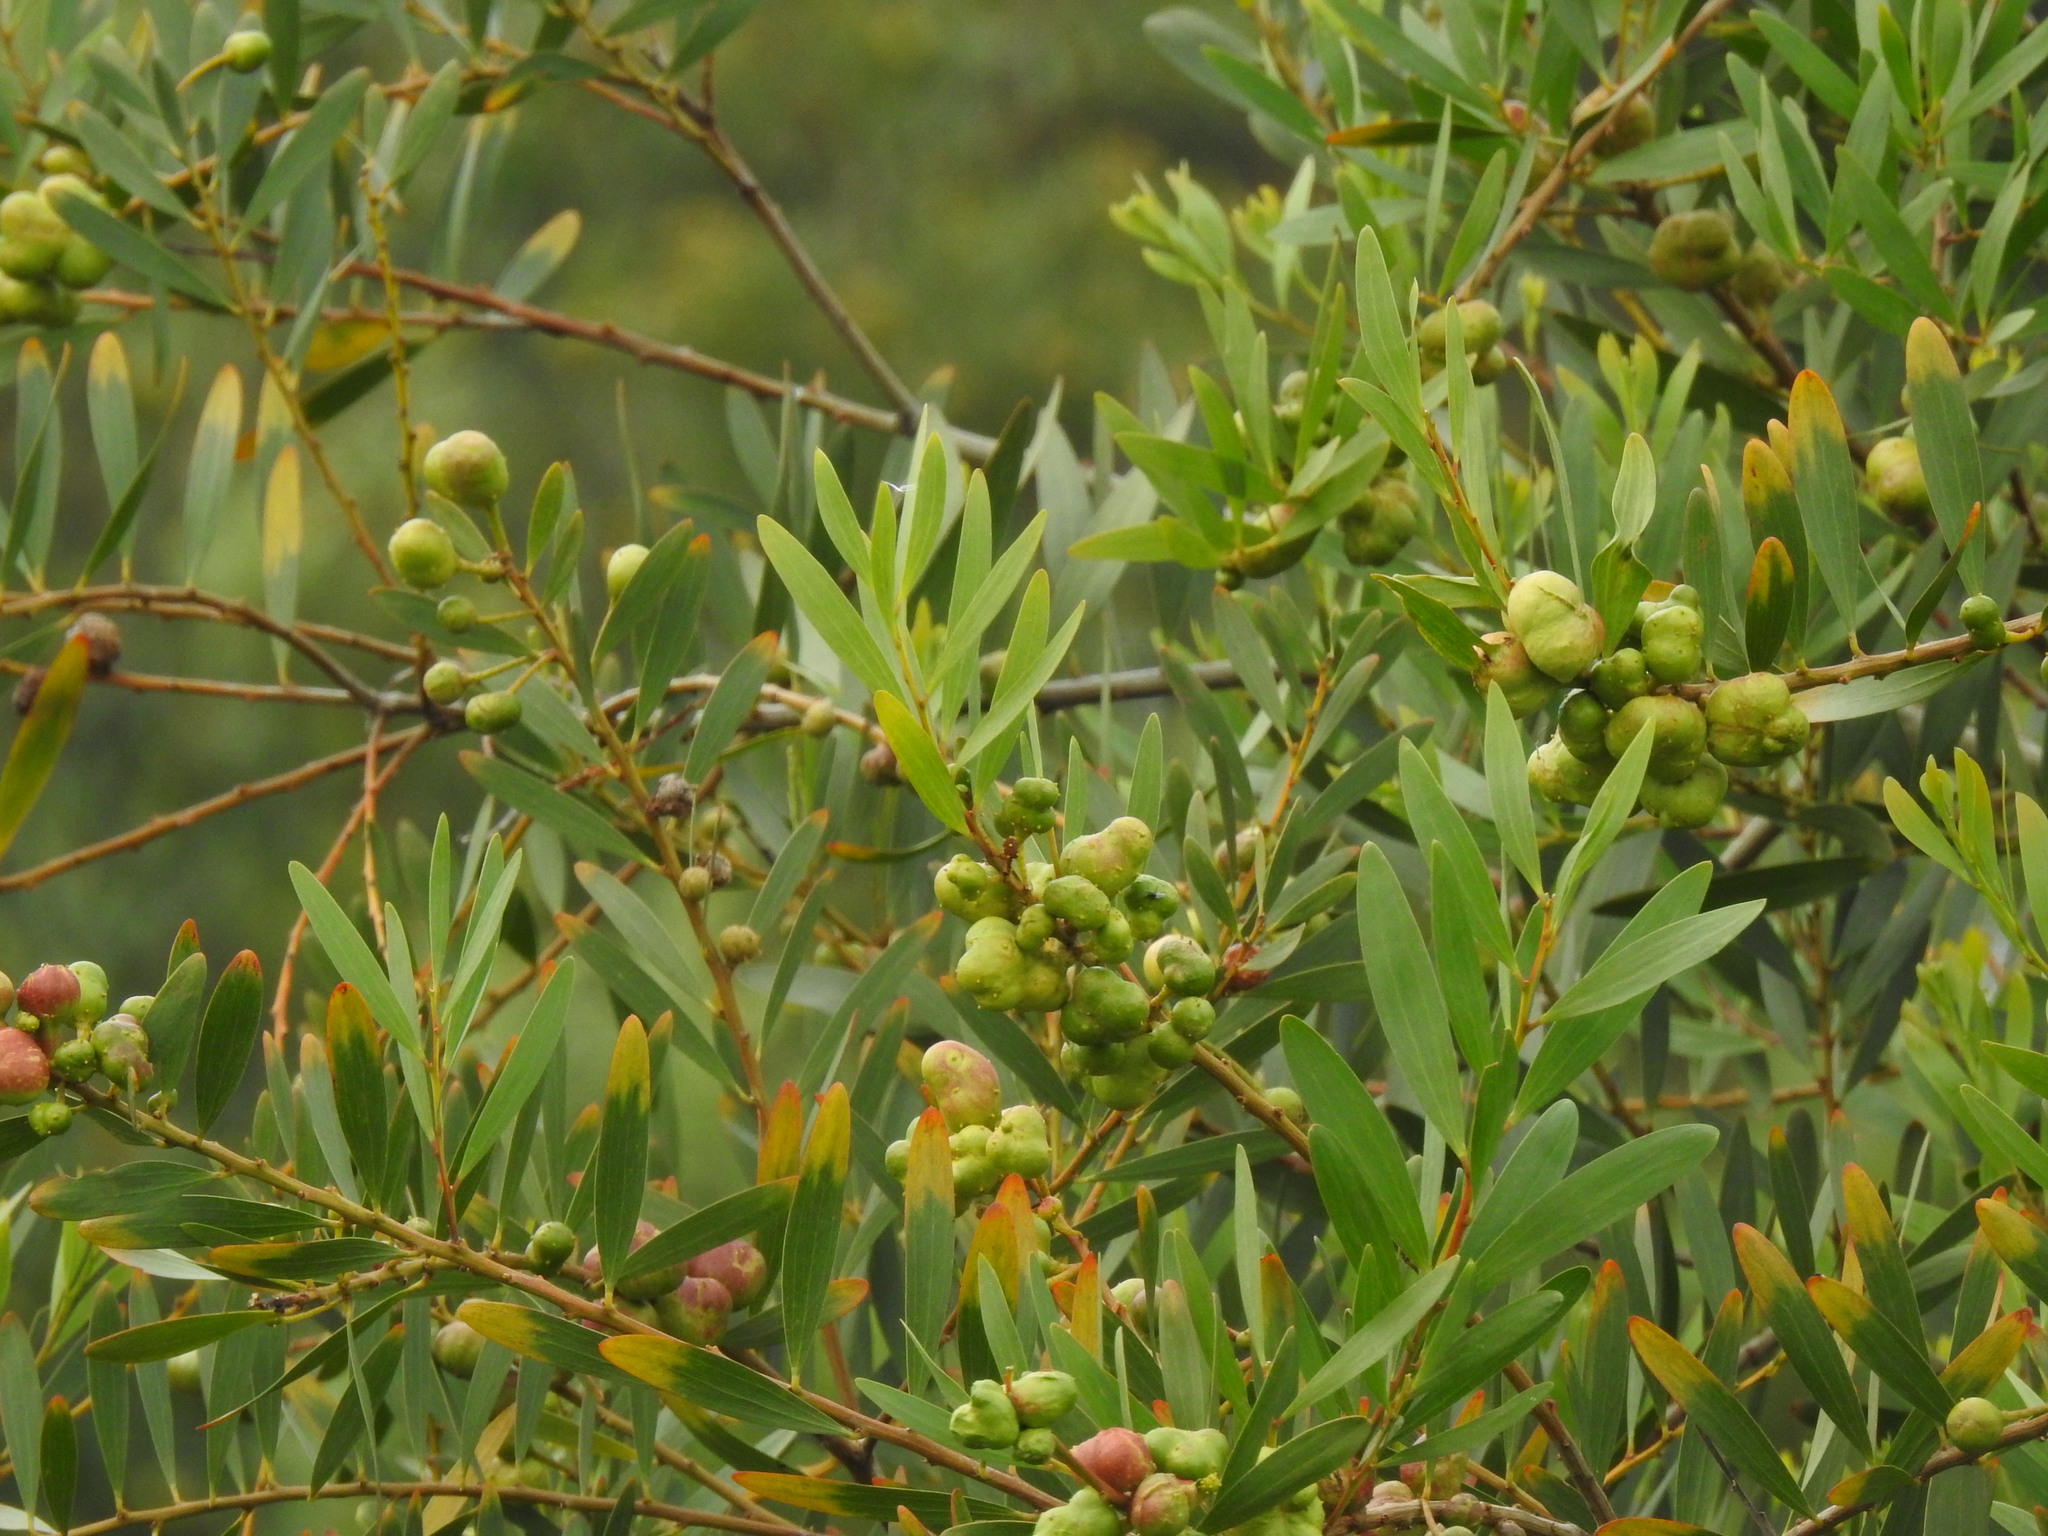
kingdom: Plantae
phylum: Tracheophyta
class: Magnoliopsida
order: Fabales
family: Fabaceae
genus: Acacia
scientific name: Acacia longifolia
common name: Sydney golden wattle
